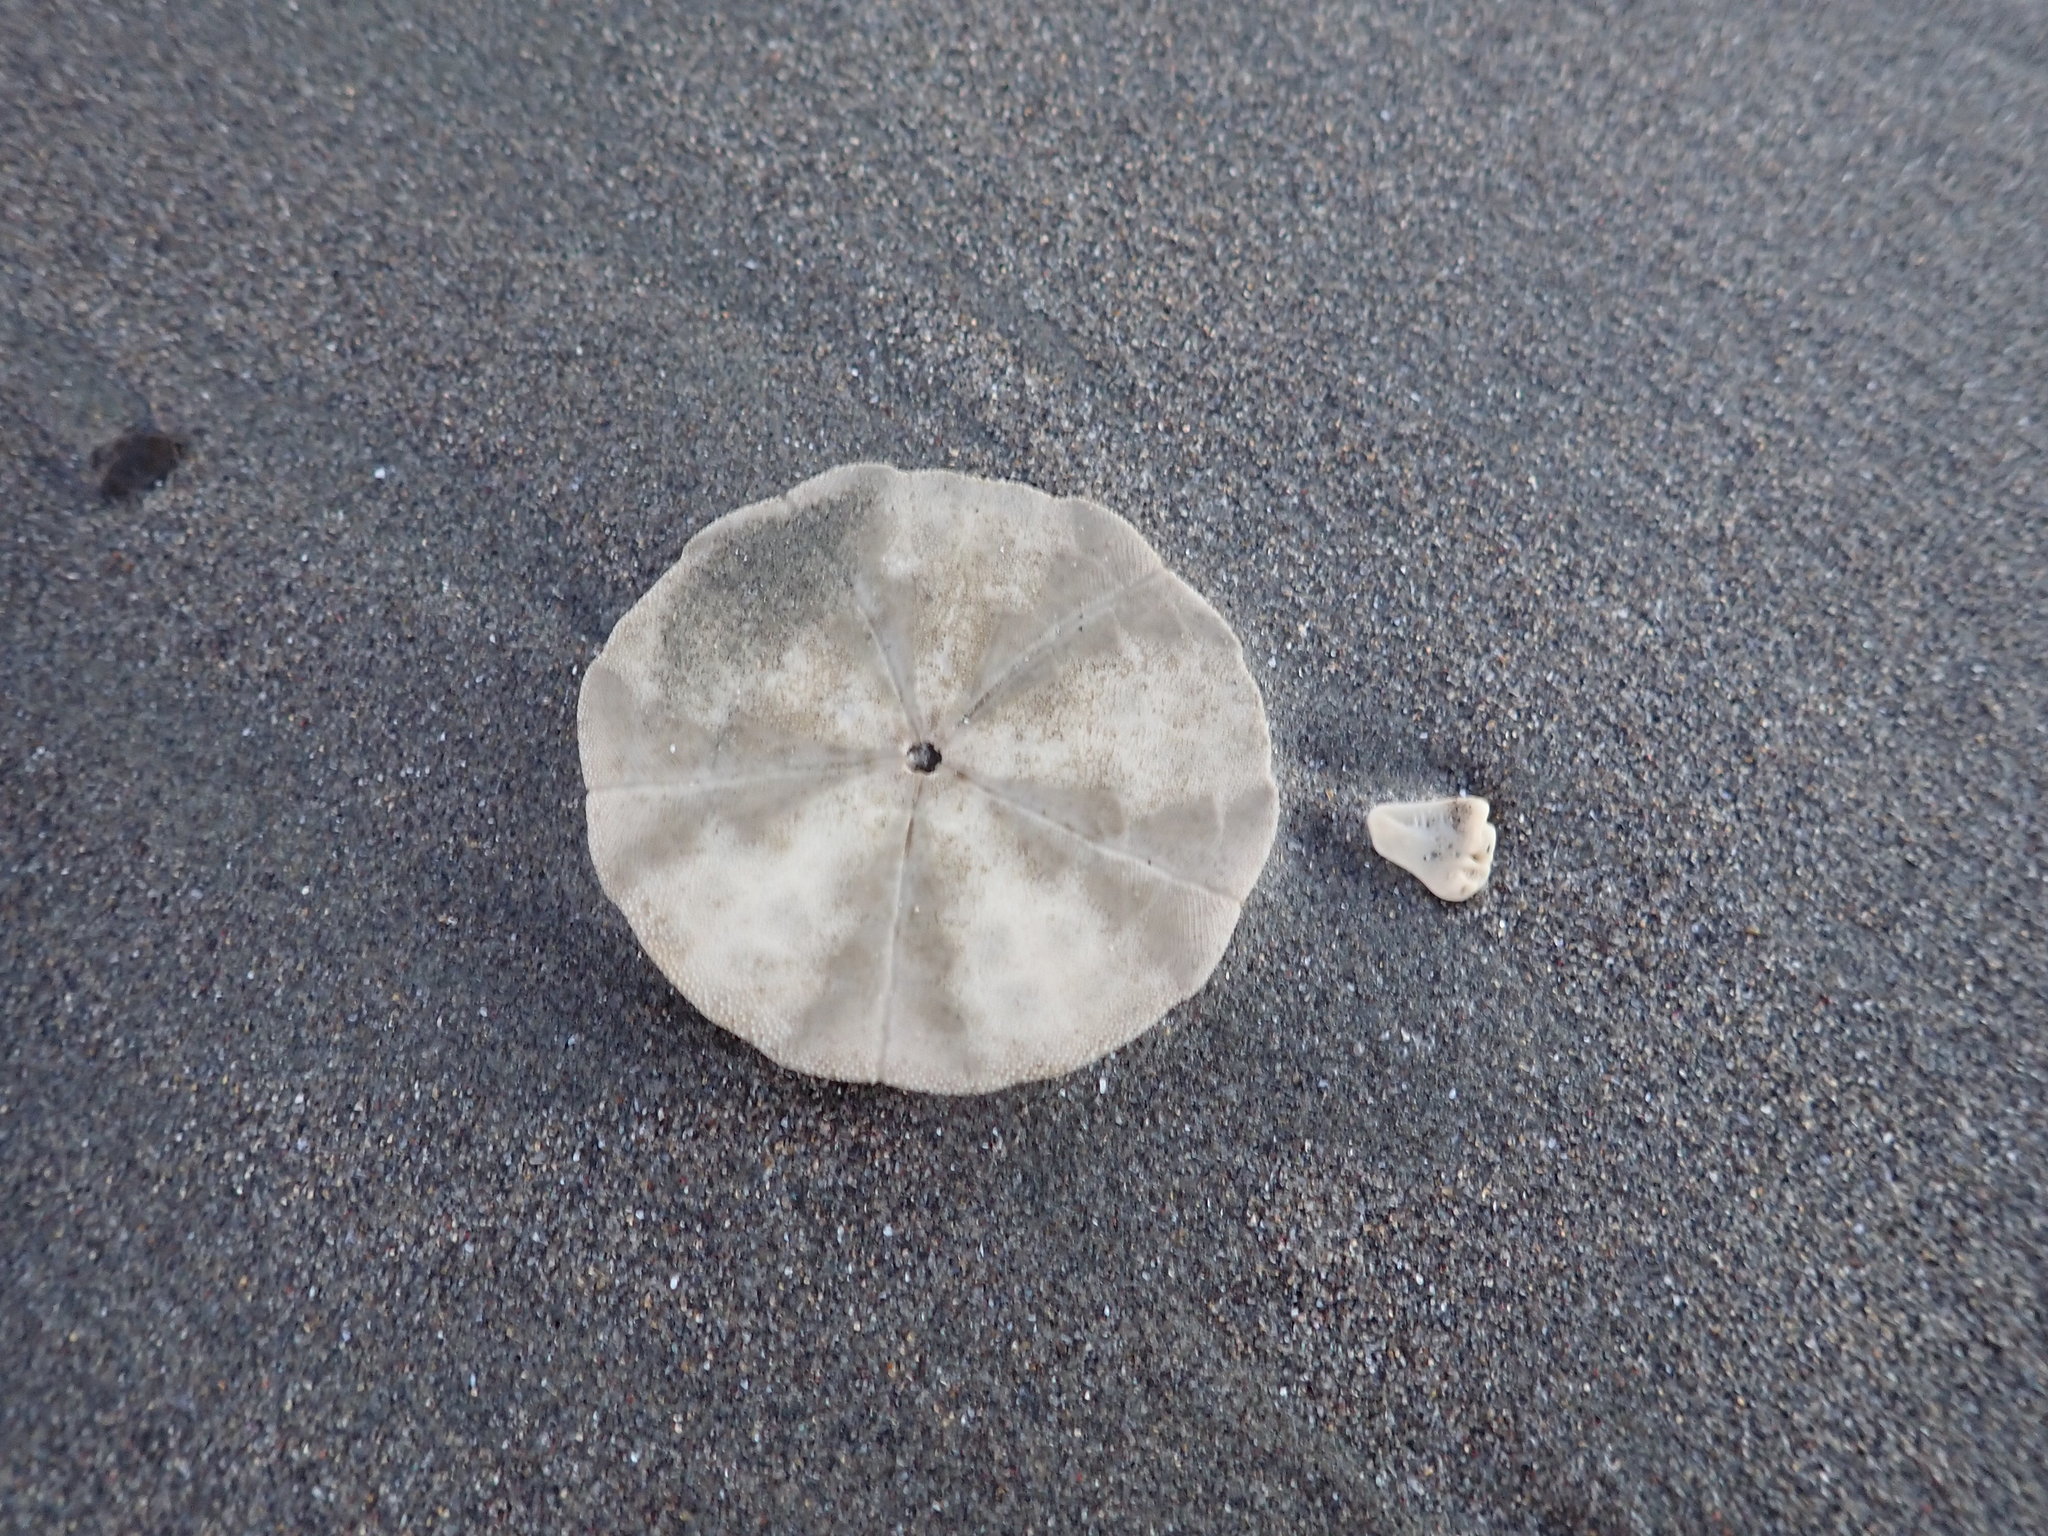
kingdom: Animalia
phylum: Echinodermata
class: Echinoidea
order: Clypeasteroida
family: Clypeasteridae
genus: Fellaster
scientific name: Fellaster zelandiae
